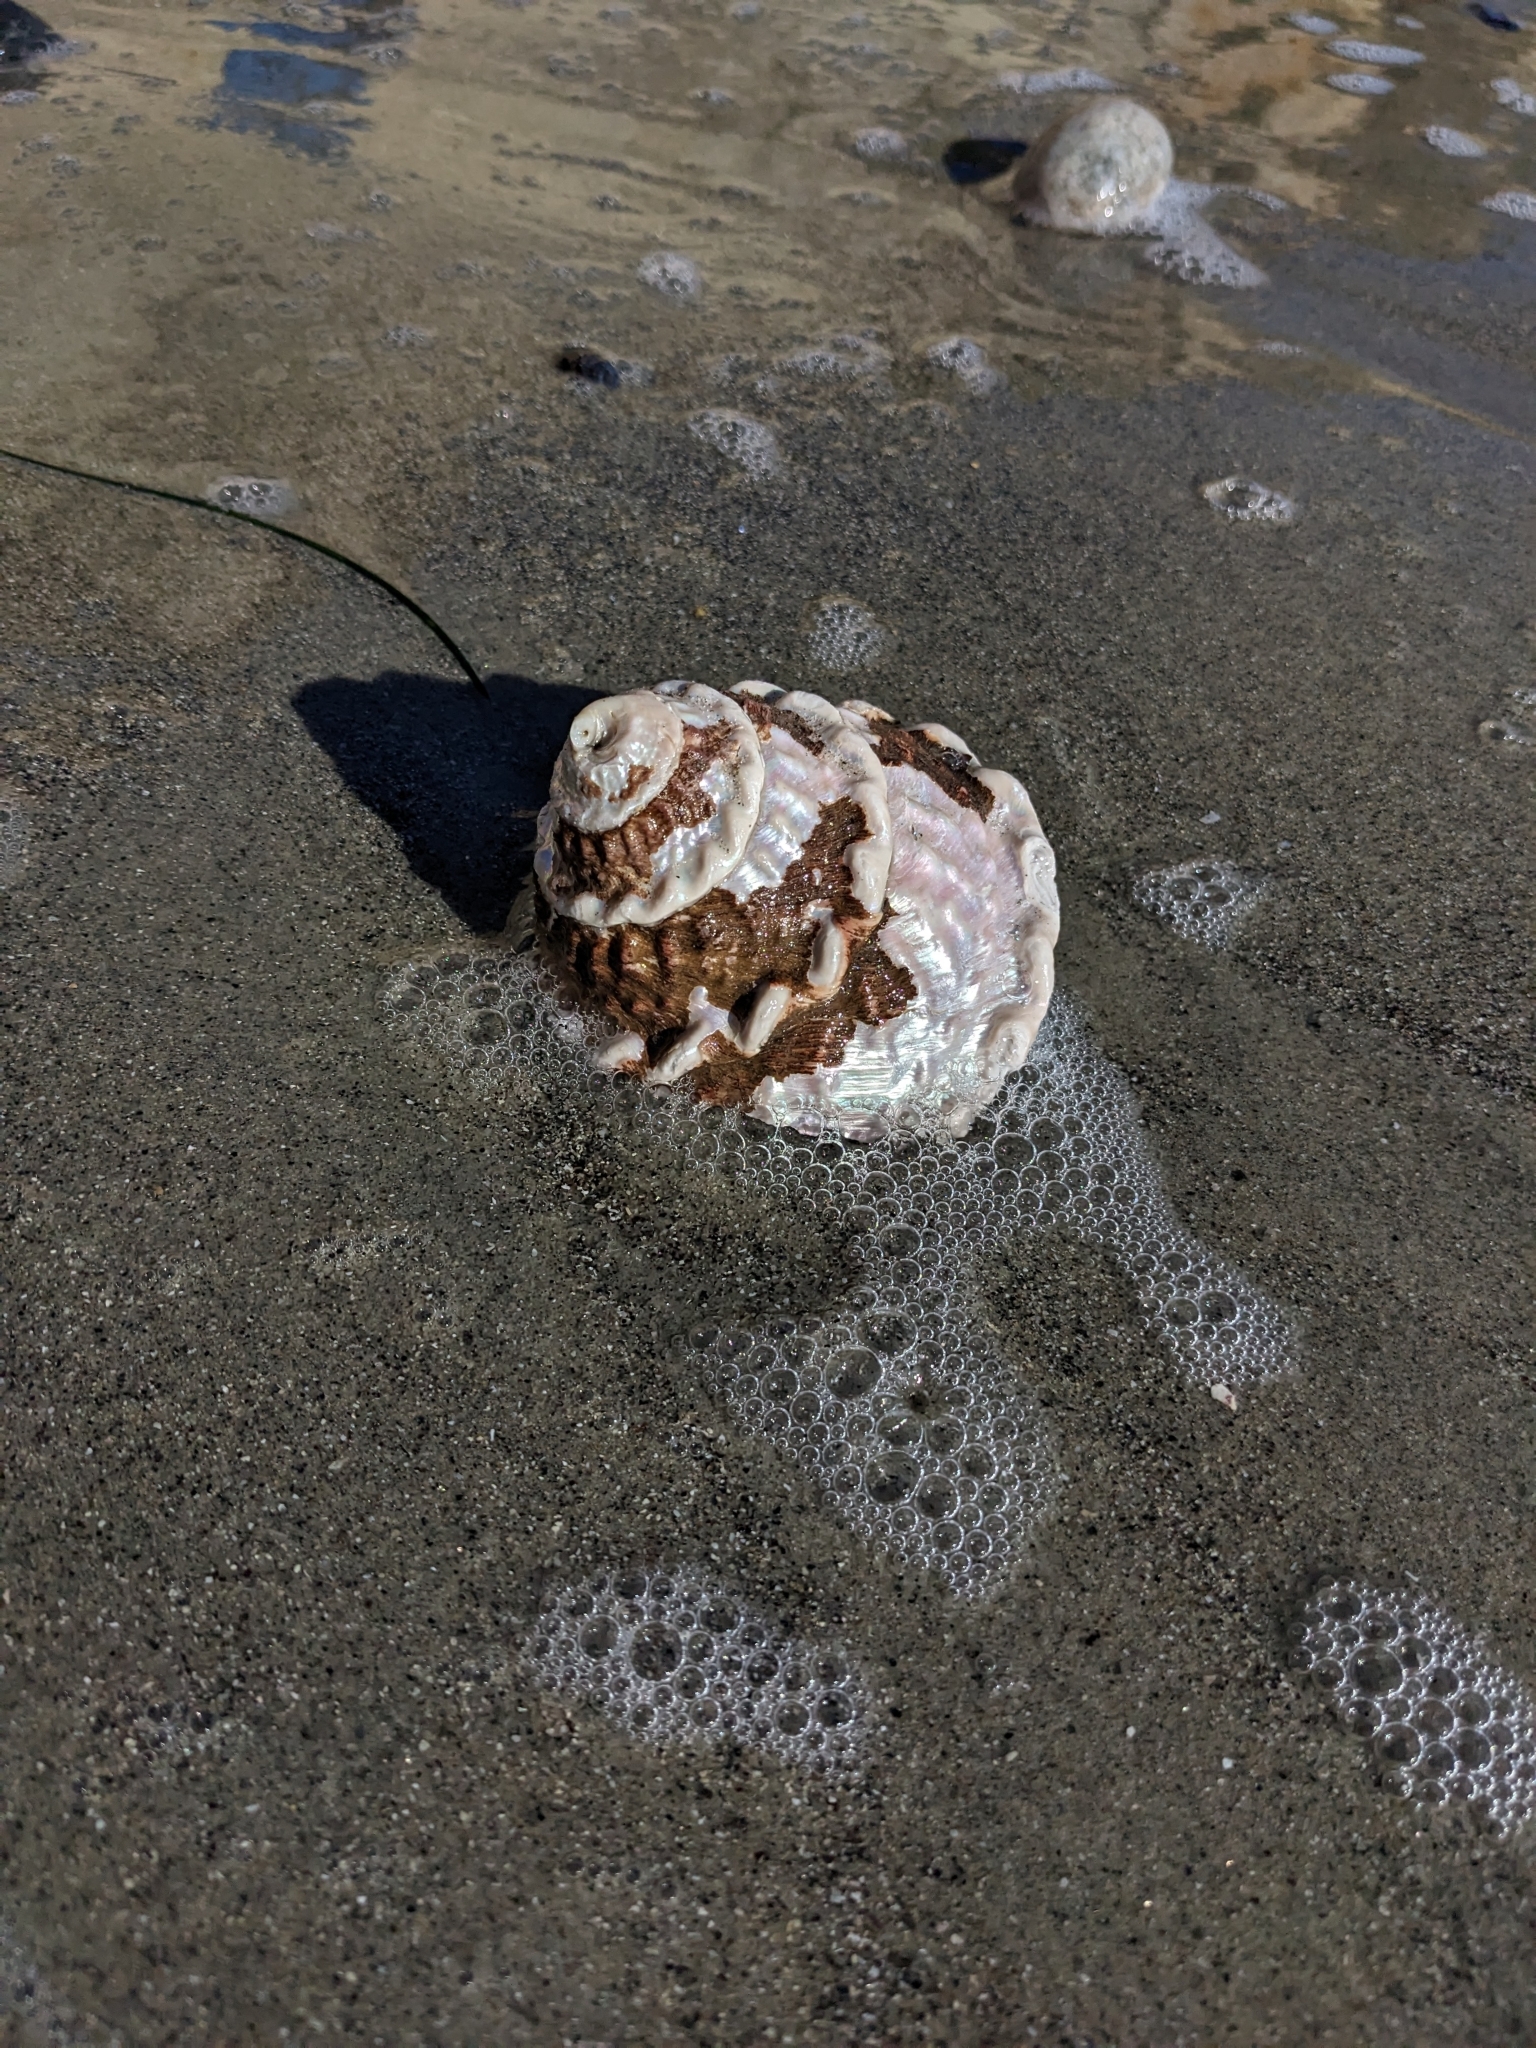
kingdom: Animalia
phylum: Mollusca
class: Gastropoda
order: Trochida
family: Turbinidae
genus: Megastraea
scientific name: Megastraea undosa
